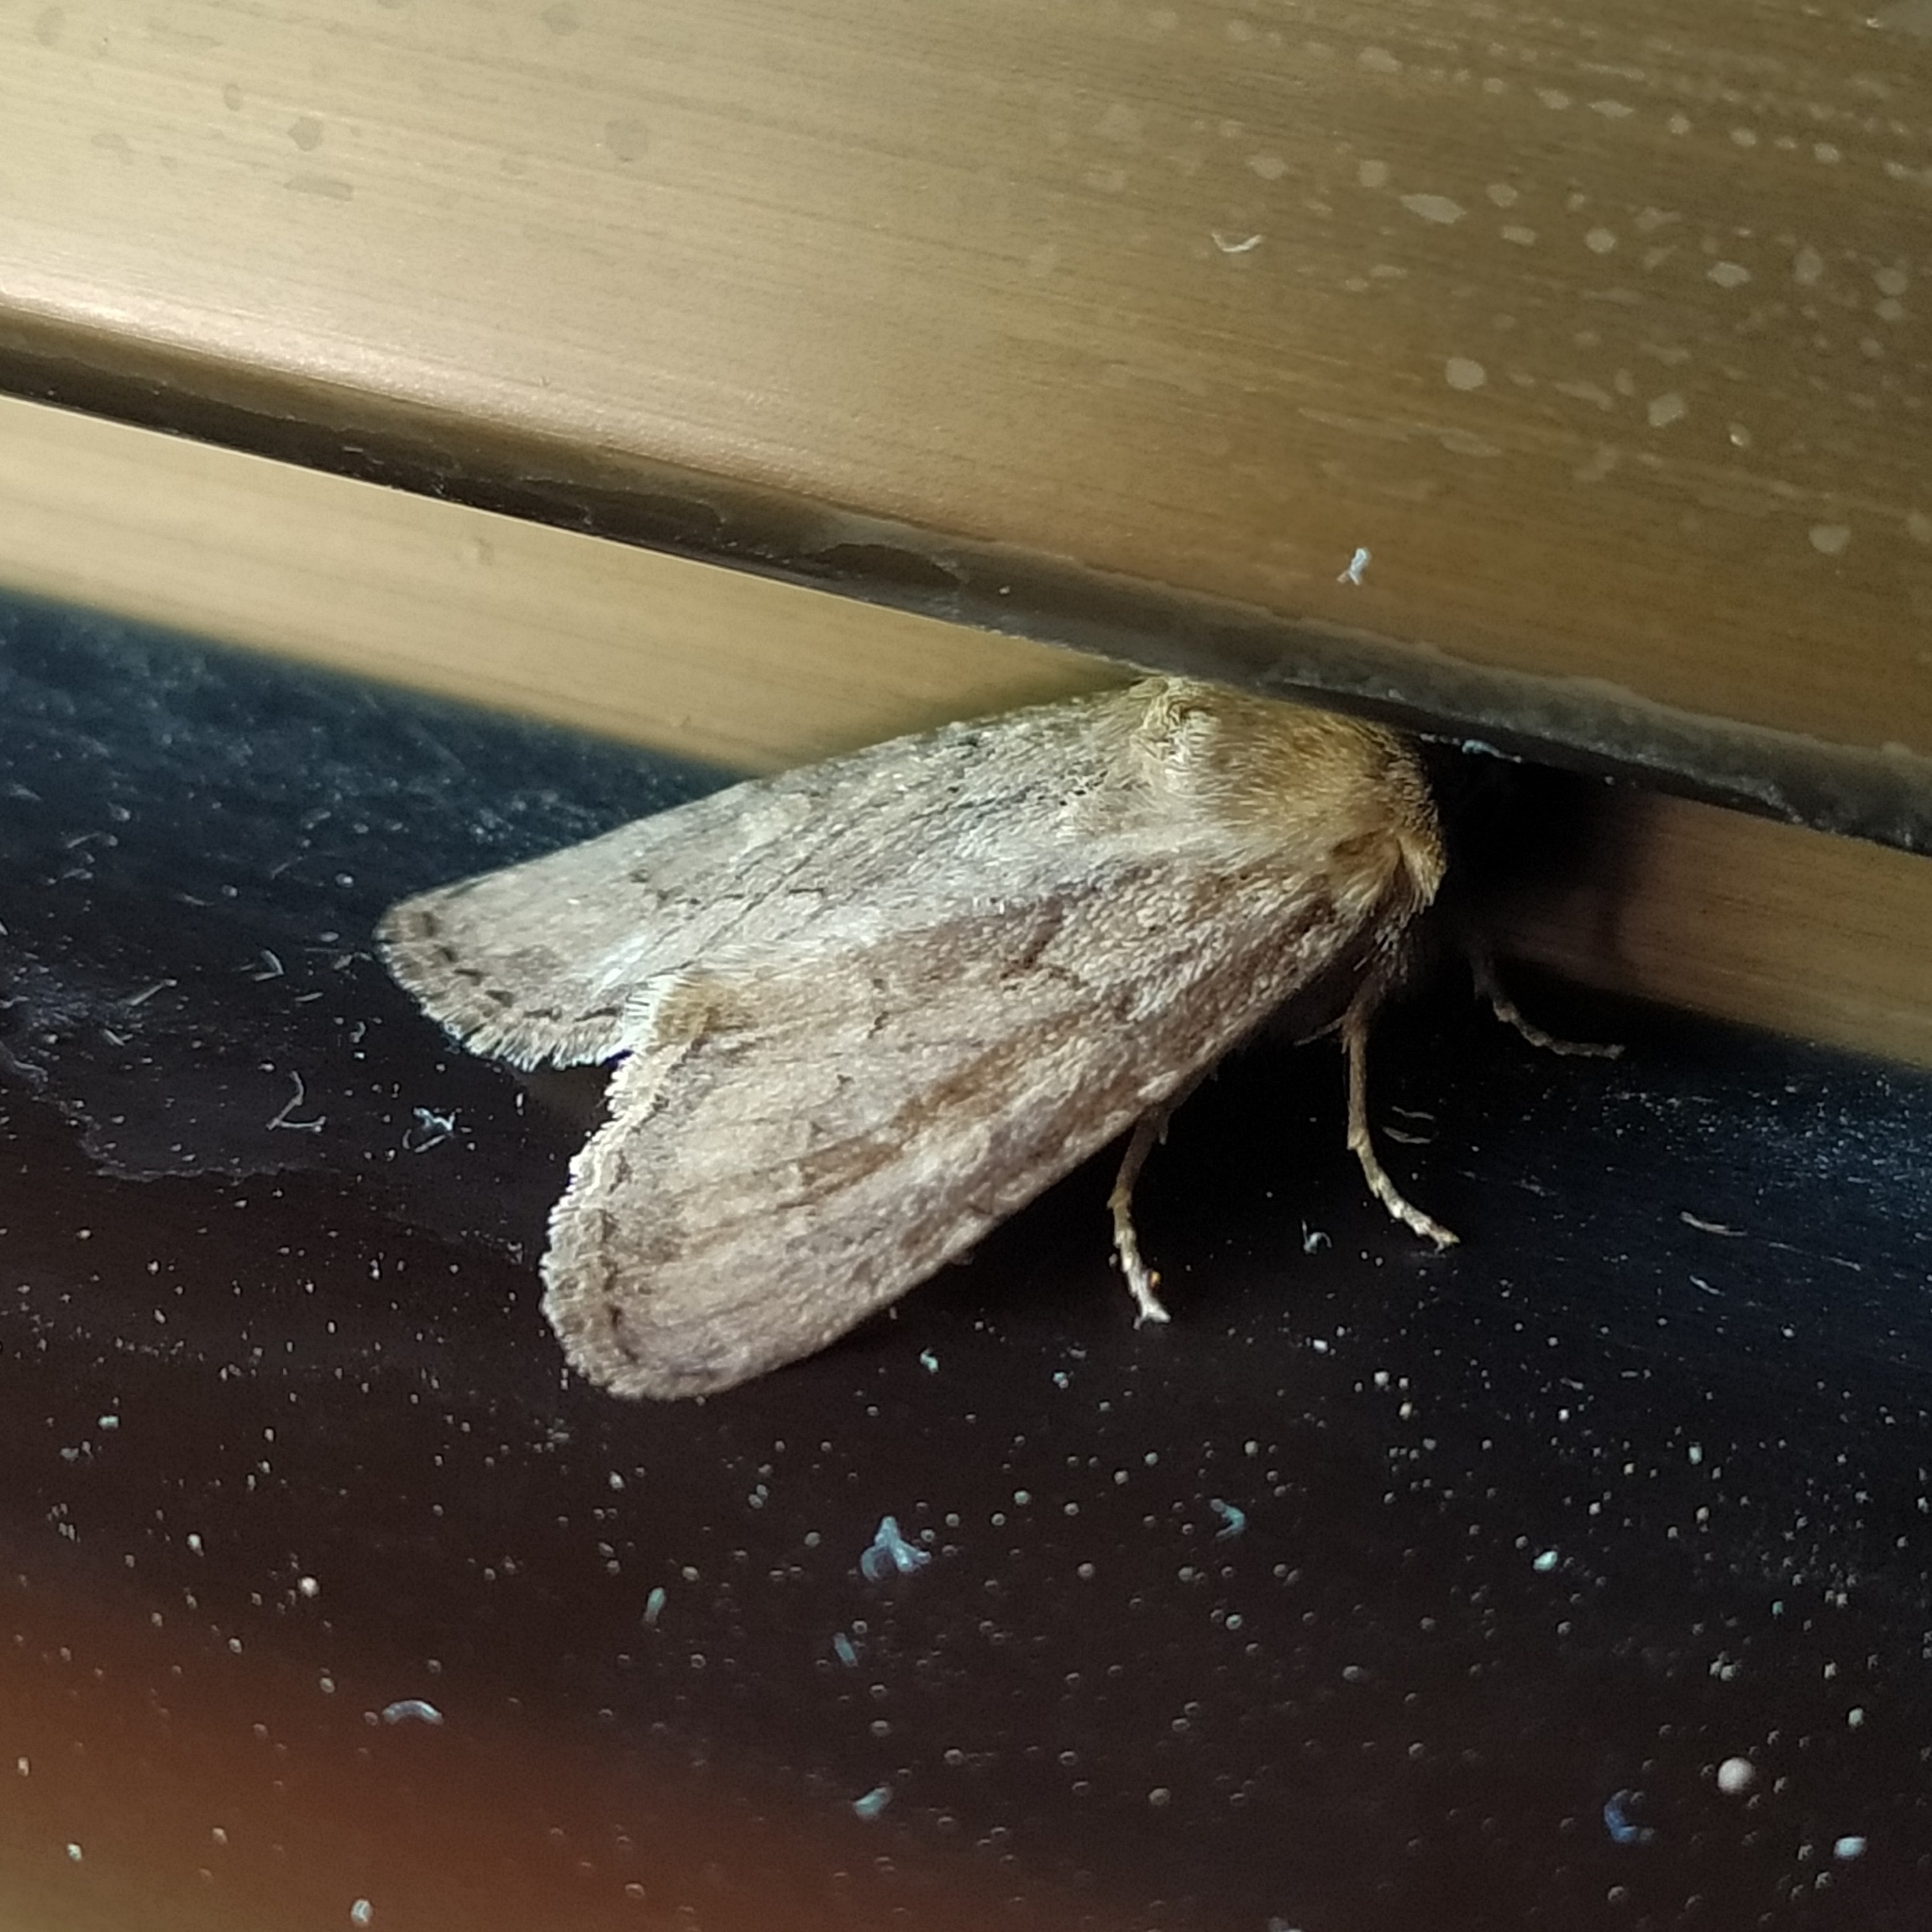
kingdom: Animalia
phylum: Arthropoda
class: Insecta
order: Lepidoptera
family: Noctuidae
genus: Luperina
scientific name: Luperina testacea
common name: Flounced rustic
